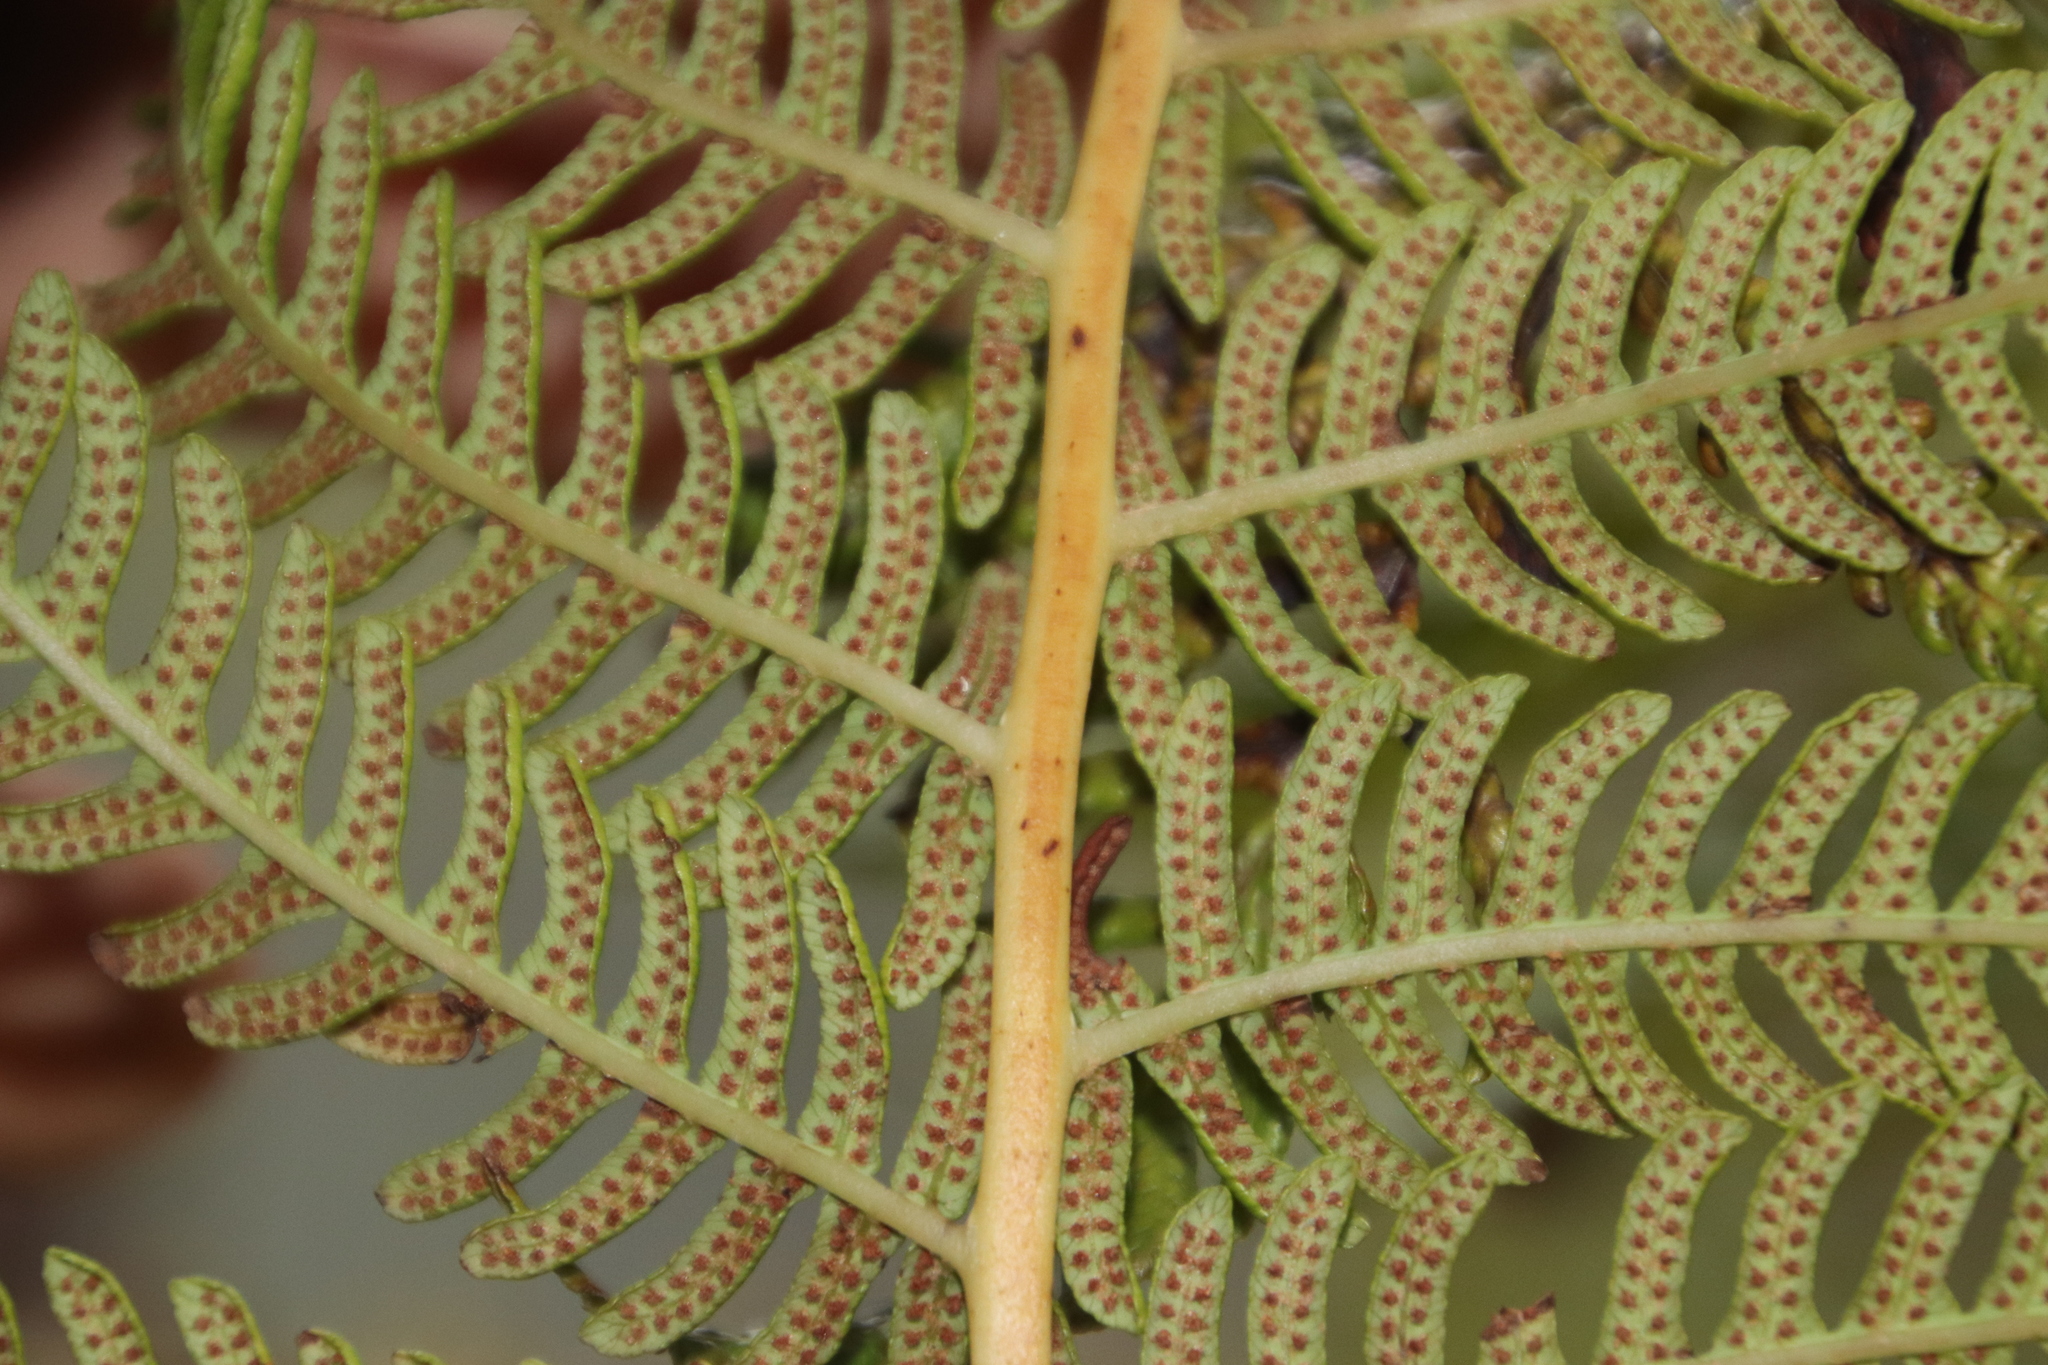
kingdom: Plantae
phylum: Tracheophyta
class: Polypodiopsida
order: Cyatheales
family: Cyatheaceae
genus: Sphaeropteris
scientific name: Sphaeropteris cooperi
